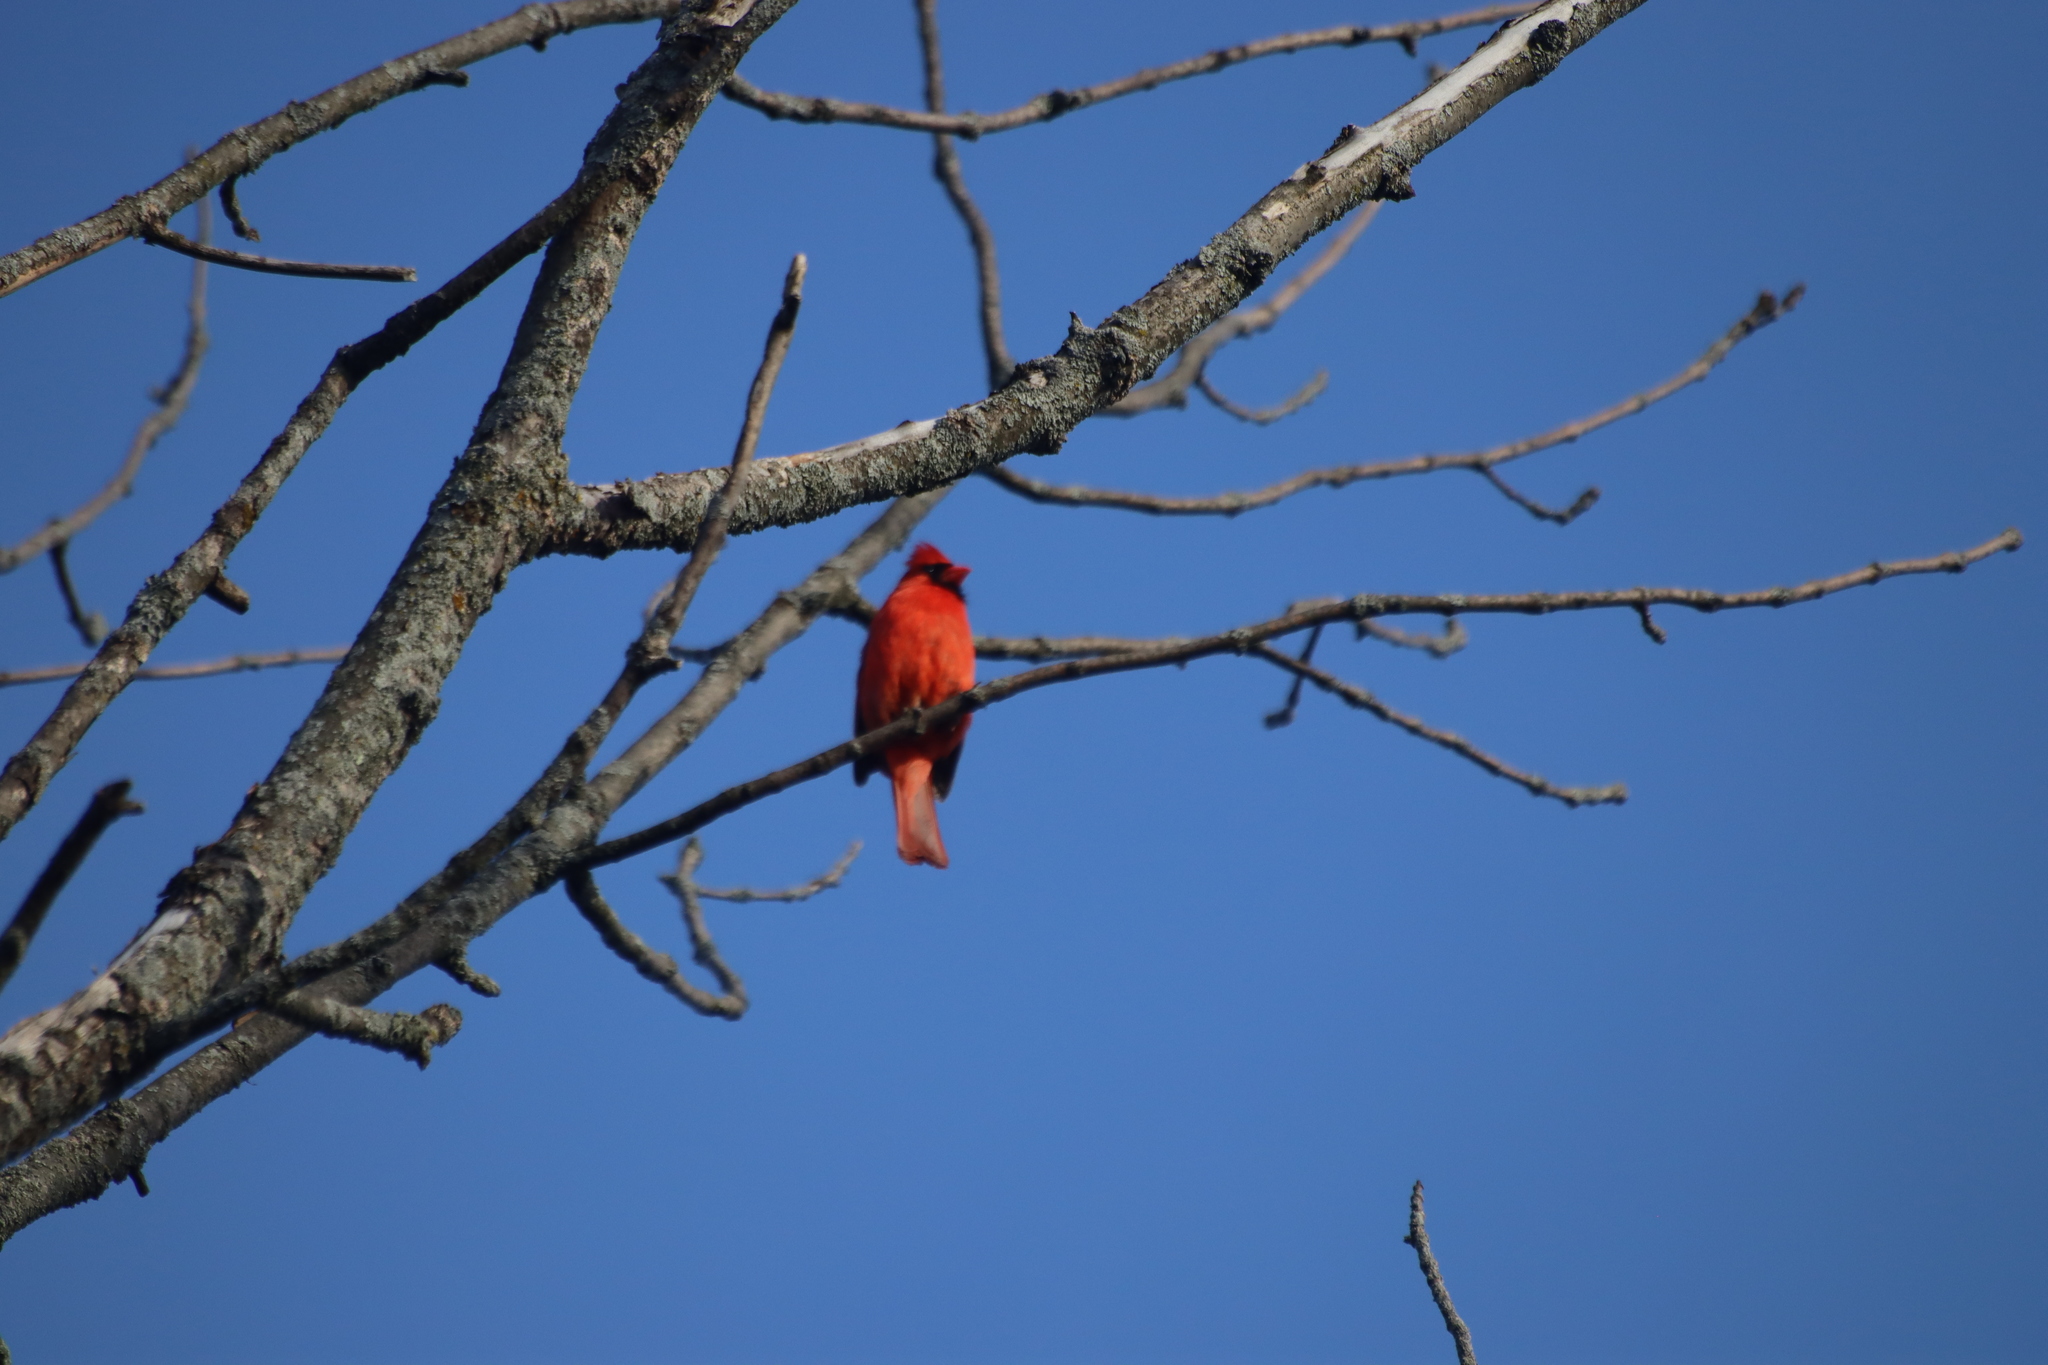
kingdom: Animalia
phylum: Chordata
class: Aves
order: Passeriformes
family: Cardinalidae
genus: Cardinalis
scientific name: Cardinalis cardinalis
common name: Northern cardinal
